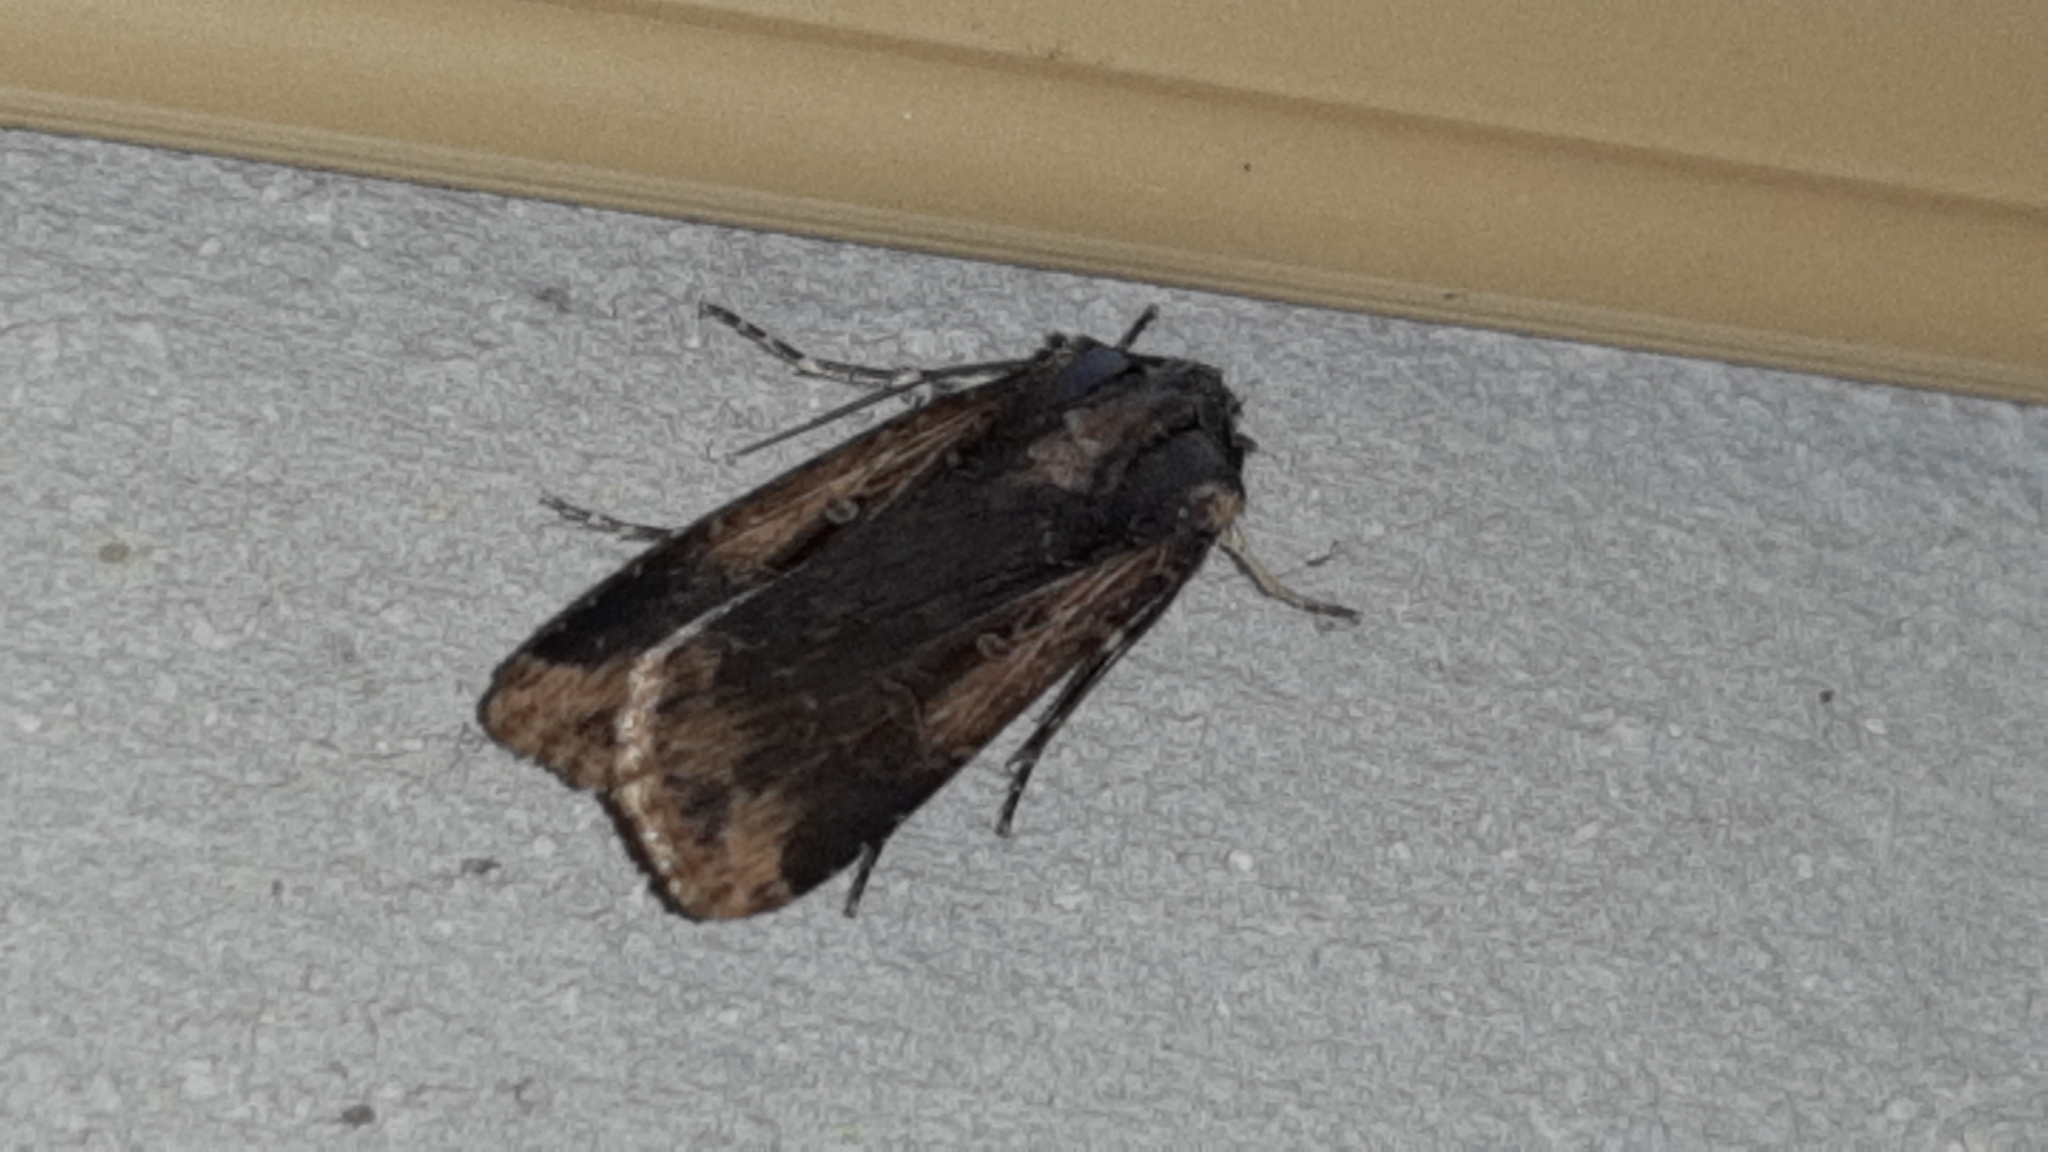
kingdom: Animalia
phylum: Arthropoda
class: Insecta
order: Lepidoptera
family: Noctuidae
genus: Feltia
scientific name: Feltia subterranea
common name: Granulate cutworm
